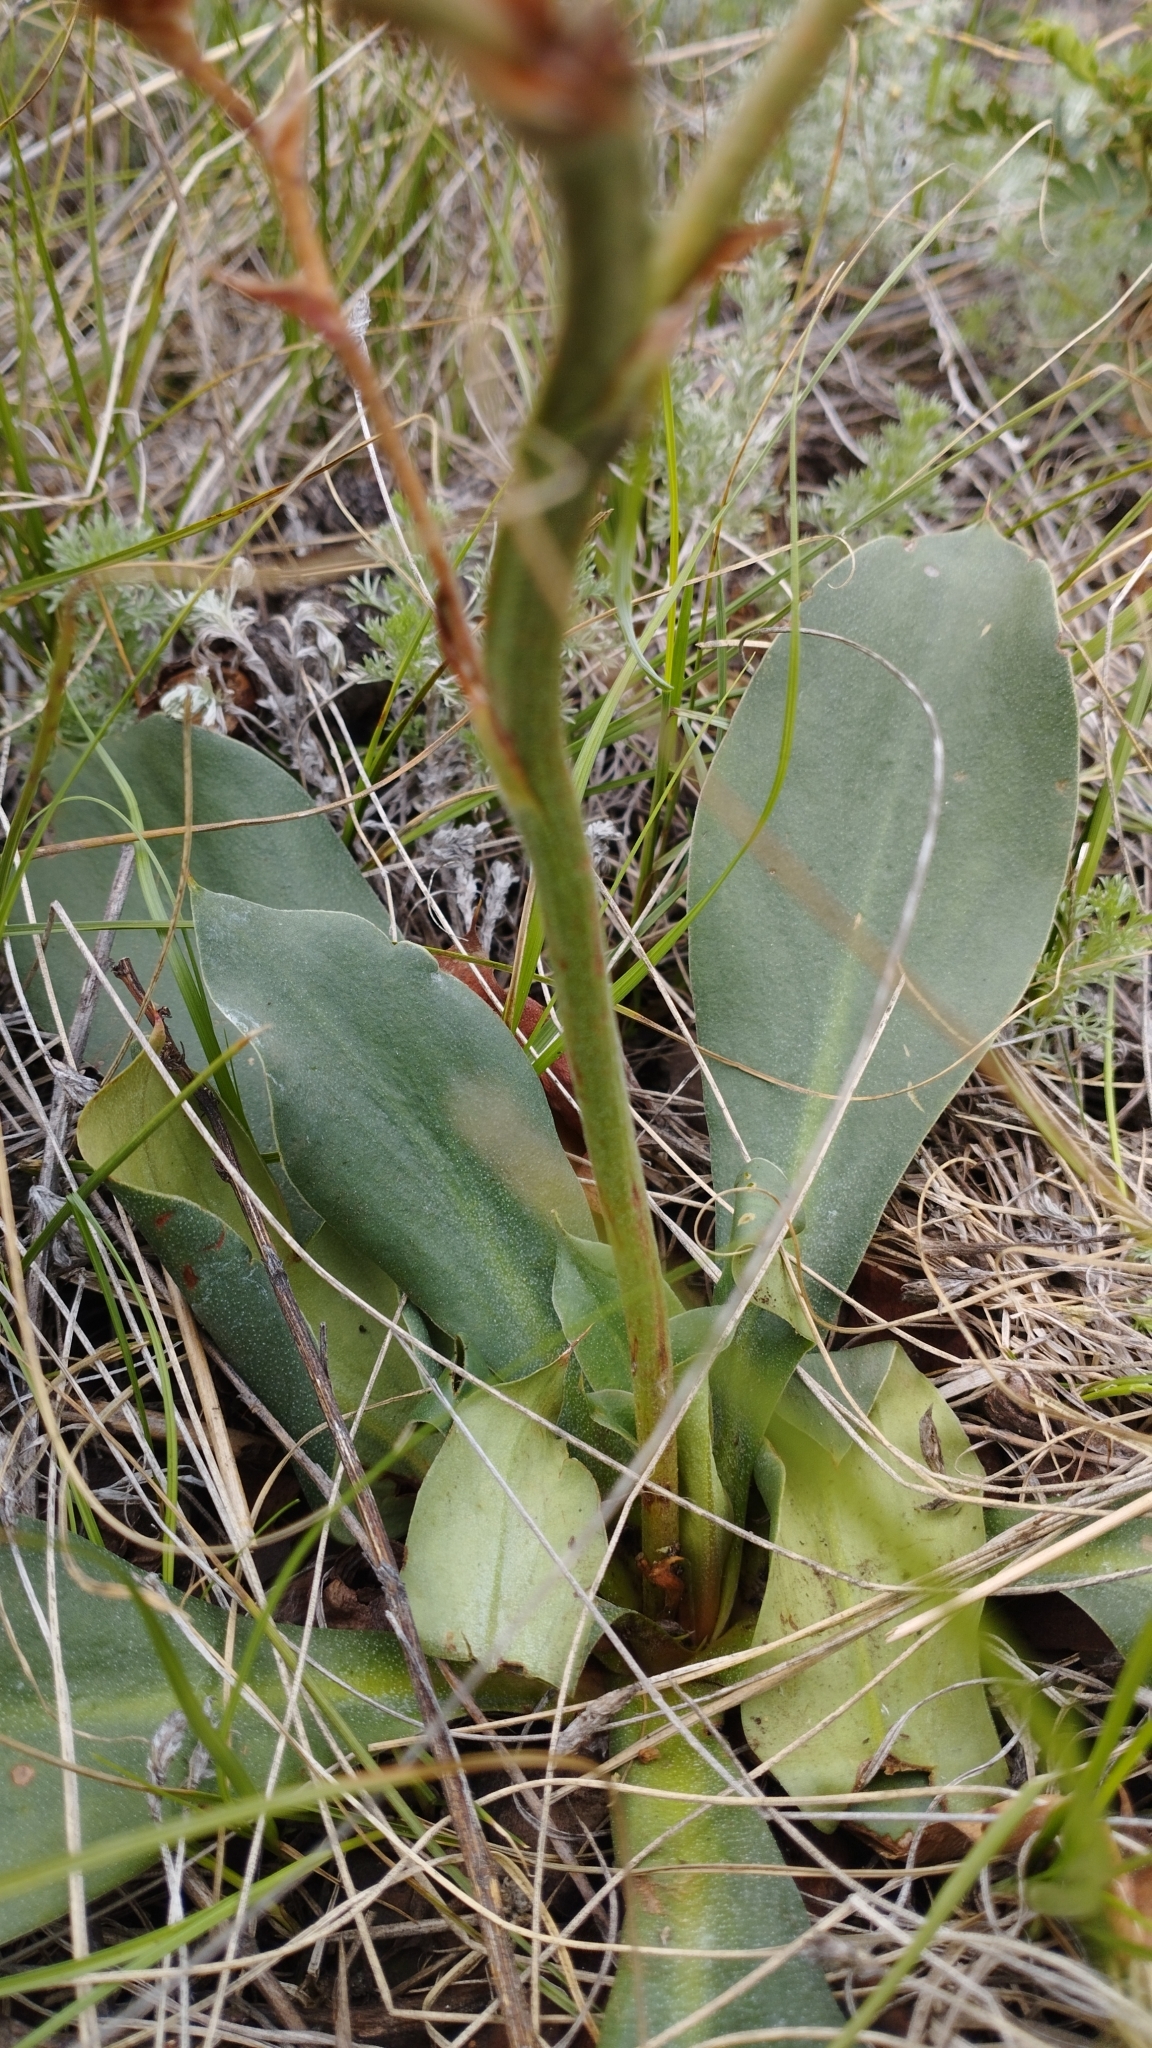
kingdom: Plantae
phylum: Tracheophyta
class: Magnoliopsida
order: Caryophyllales
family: Plumbaginaceae
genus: Goniolimon
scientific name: Goniolimon speciosum
